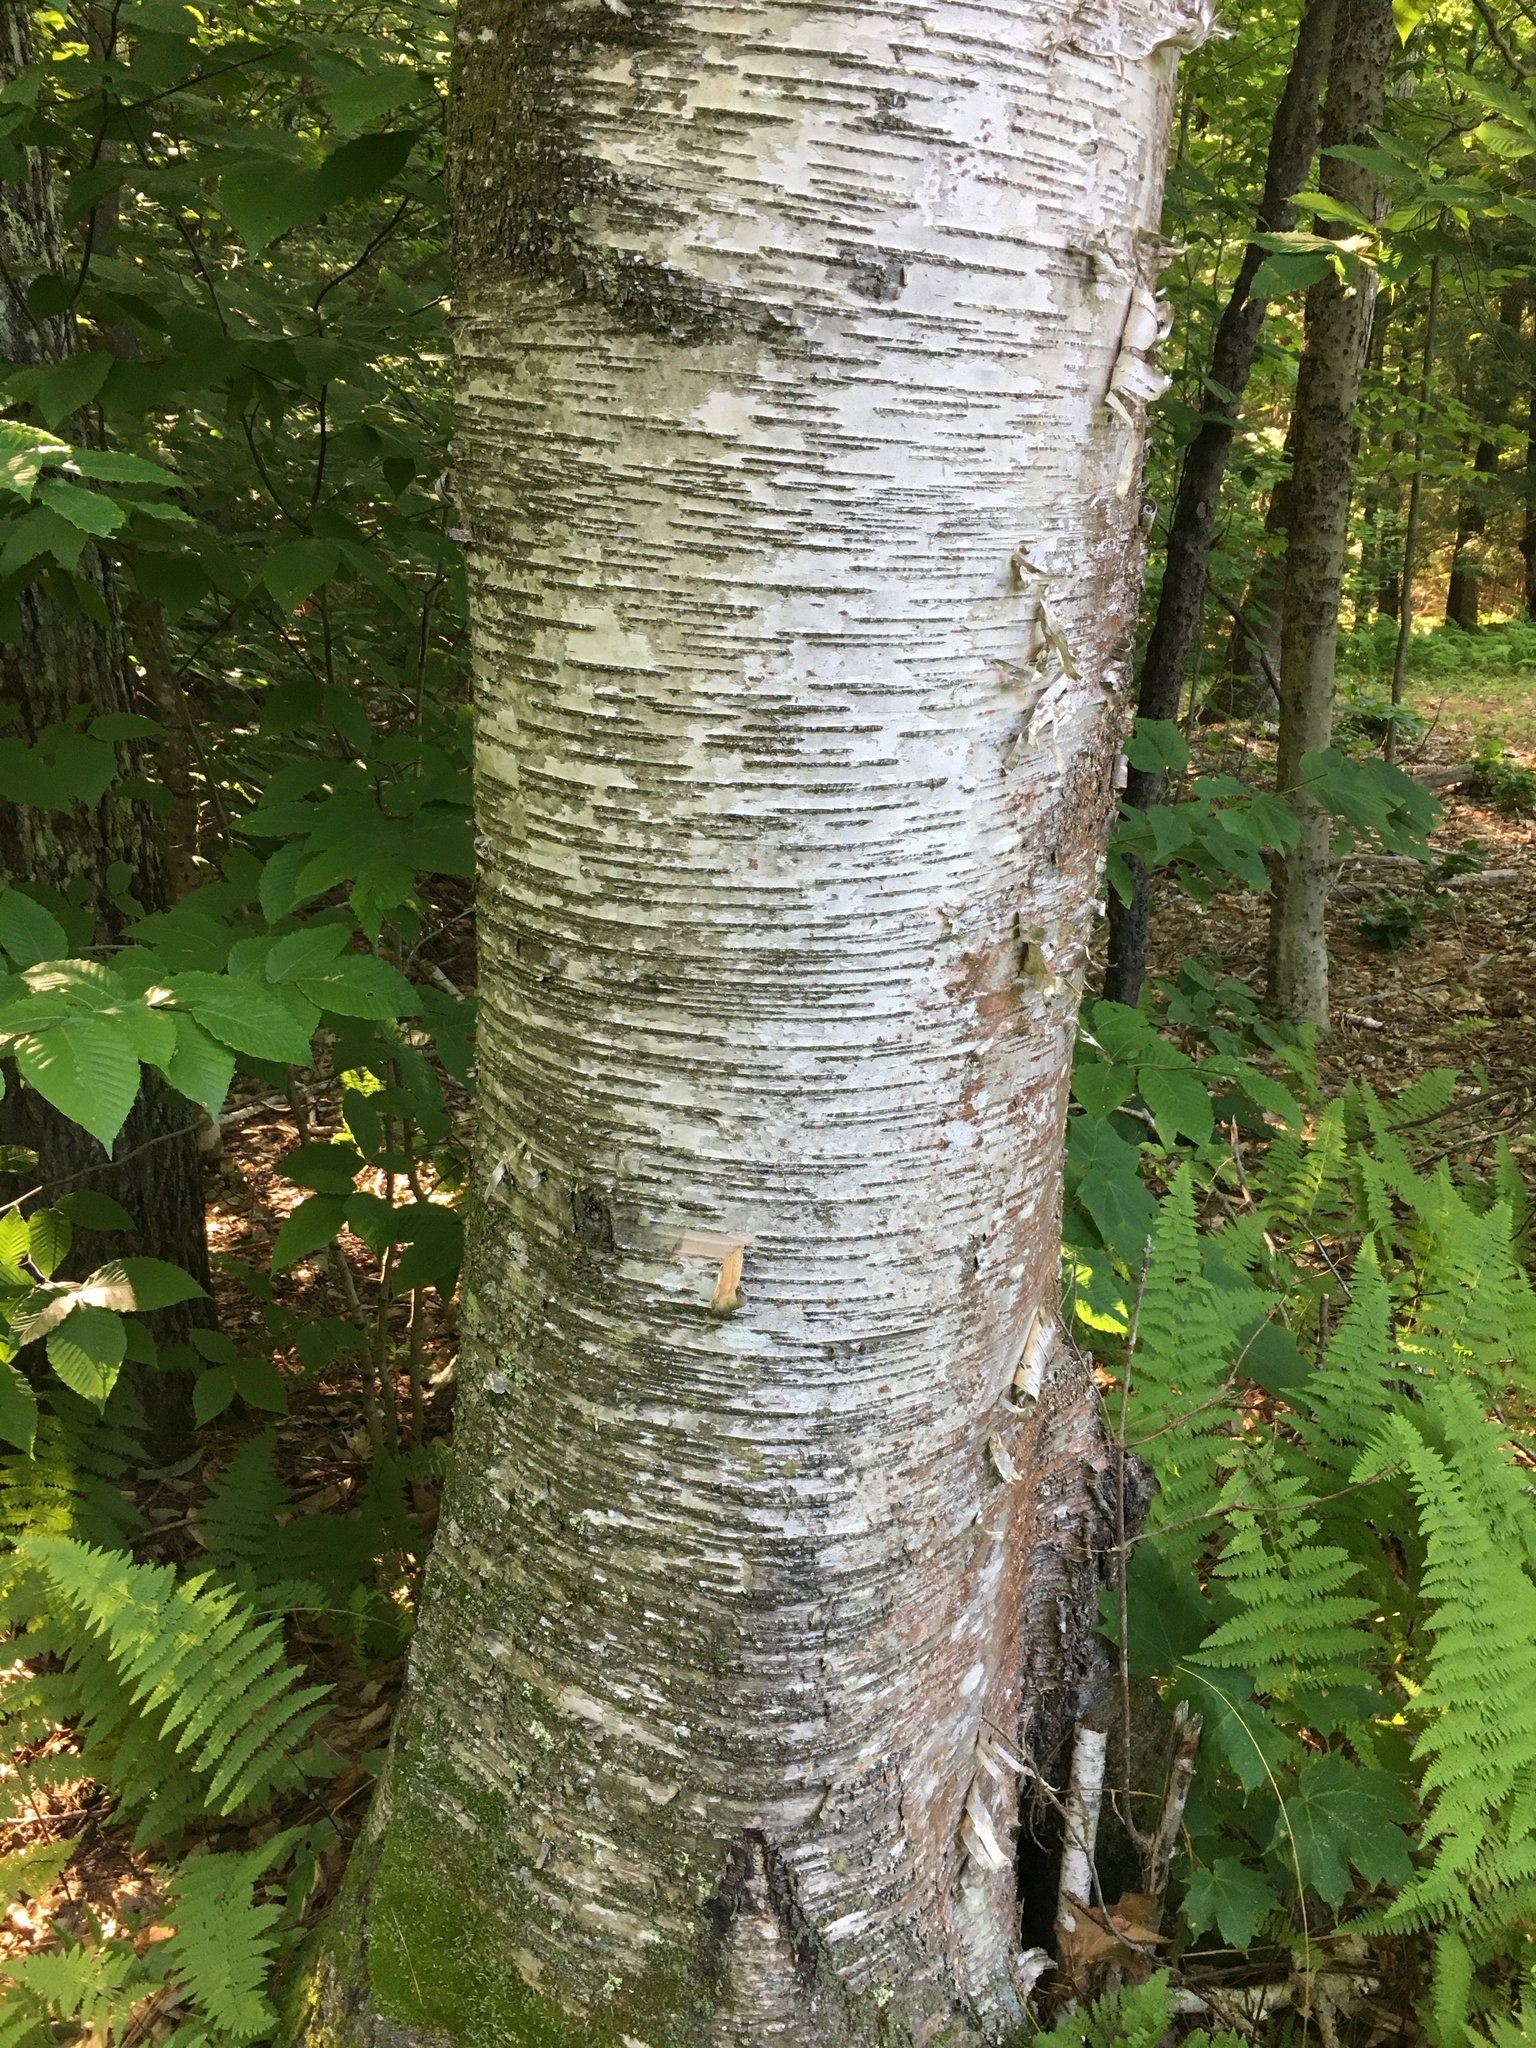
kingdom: Plantae
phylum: Tracheophyta
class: Magnoliopsida
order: Fagales
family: Betulaceae
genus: Betula
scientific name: Betula papyrifera
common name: Paper birch
